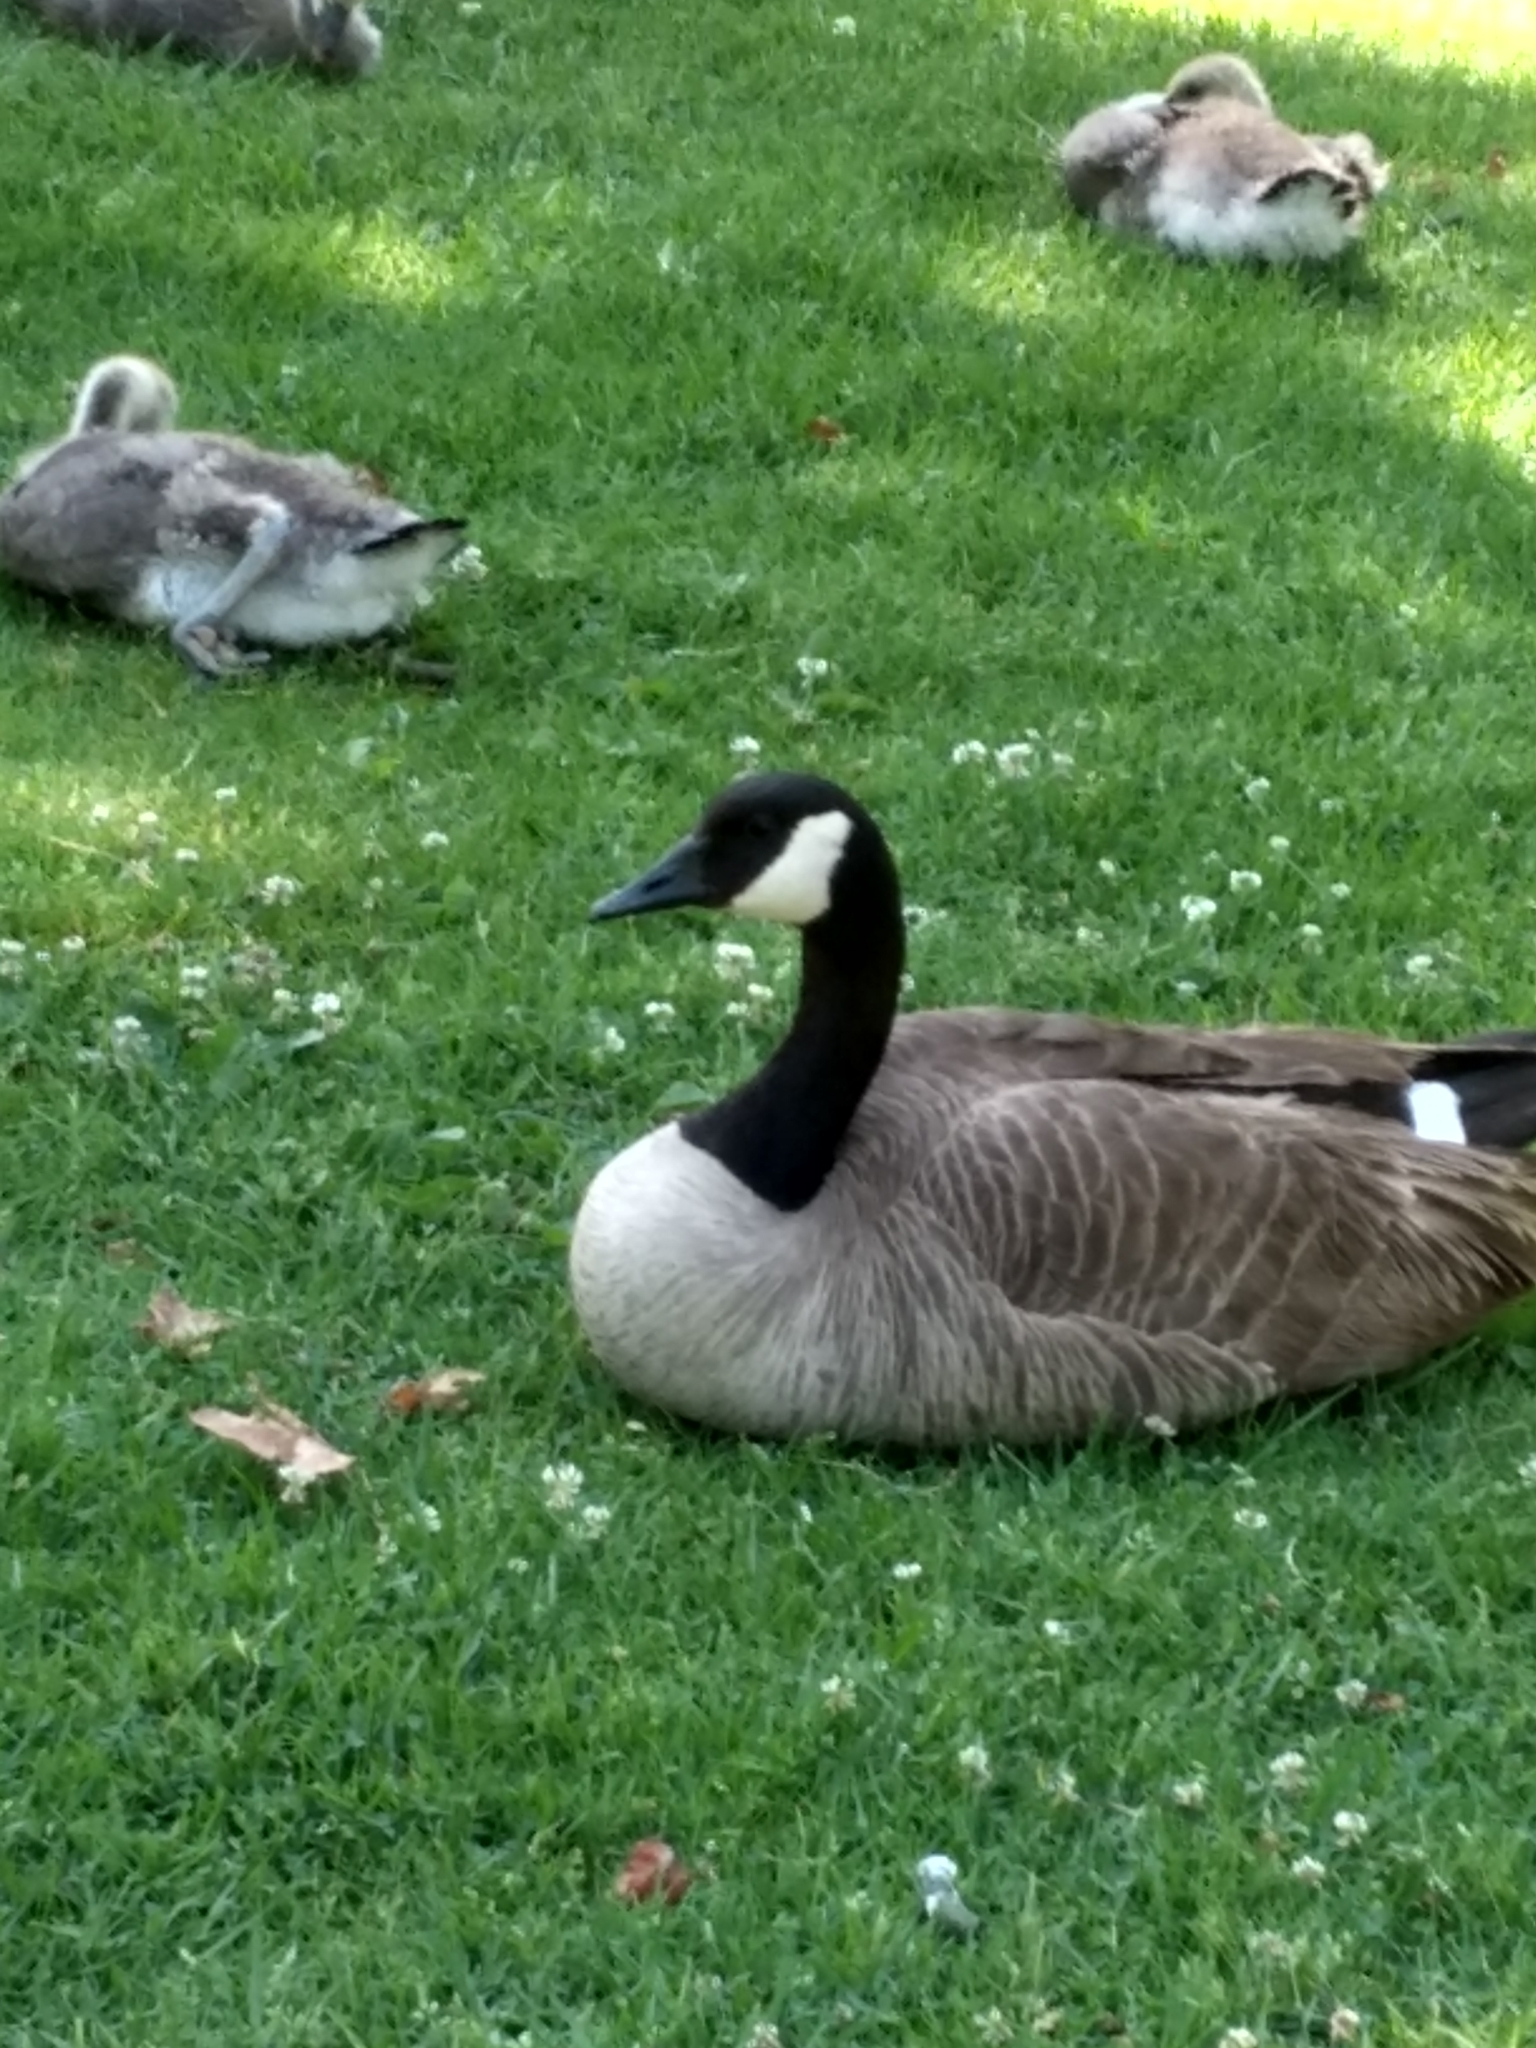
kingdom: Animalia
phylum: Chordata
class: Aves
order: Anseriformes
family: Anatidae
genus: Branta
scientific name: Branta canadensis
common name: Canada goose
